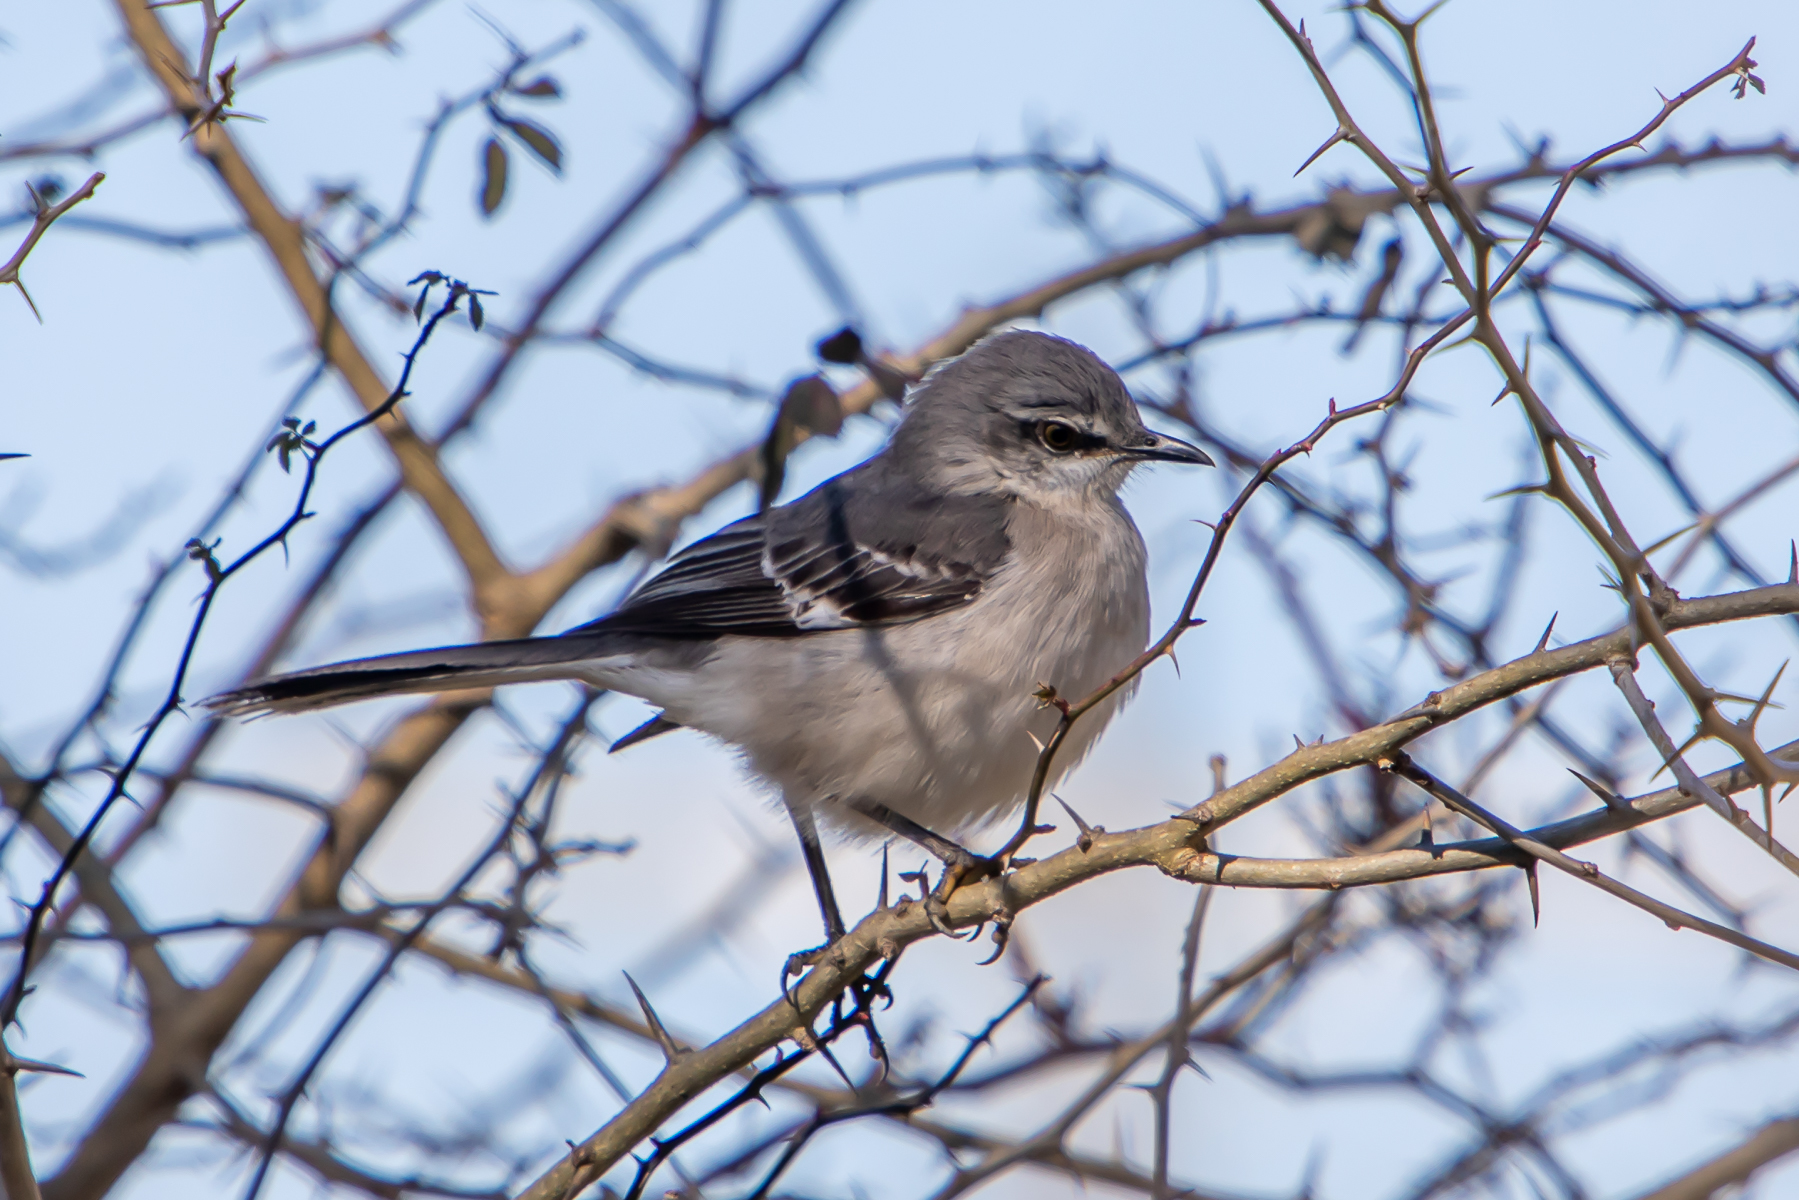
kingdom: Animalia
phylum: Chordata
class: Aves
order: Passeriformes
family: Mimidae
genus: Mimus
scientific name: Mimus polyglottos
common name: Northern mockingbird
